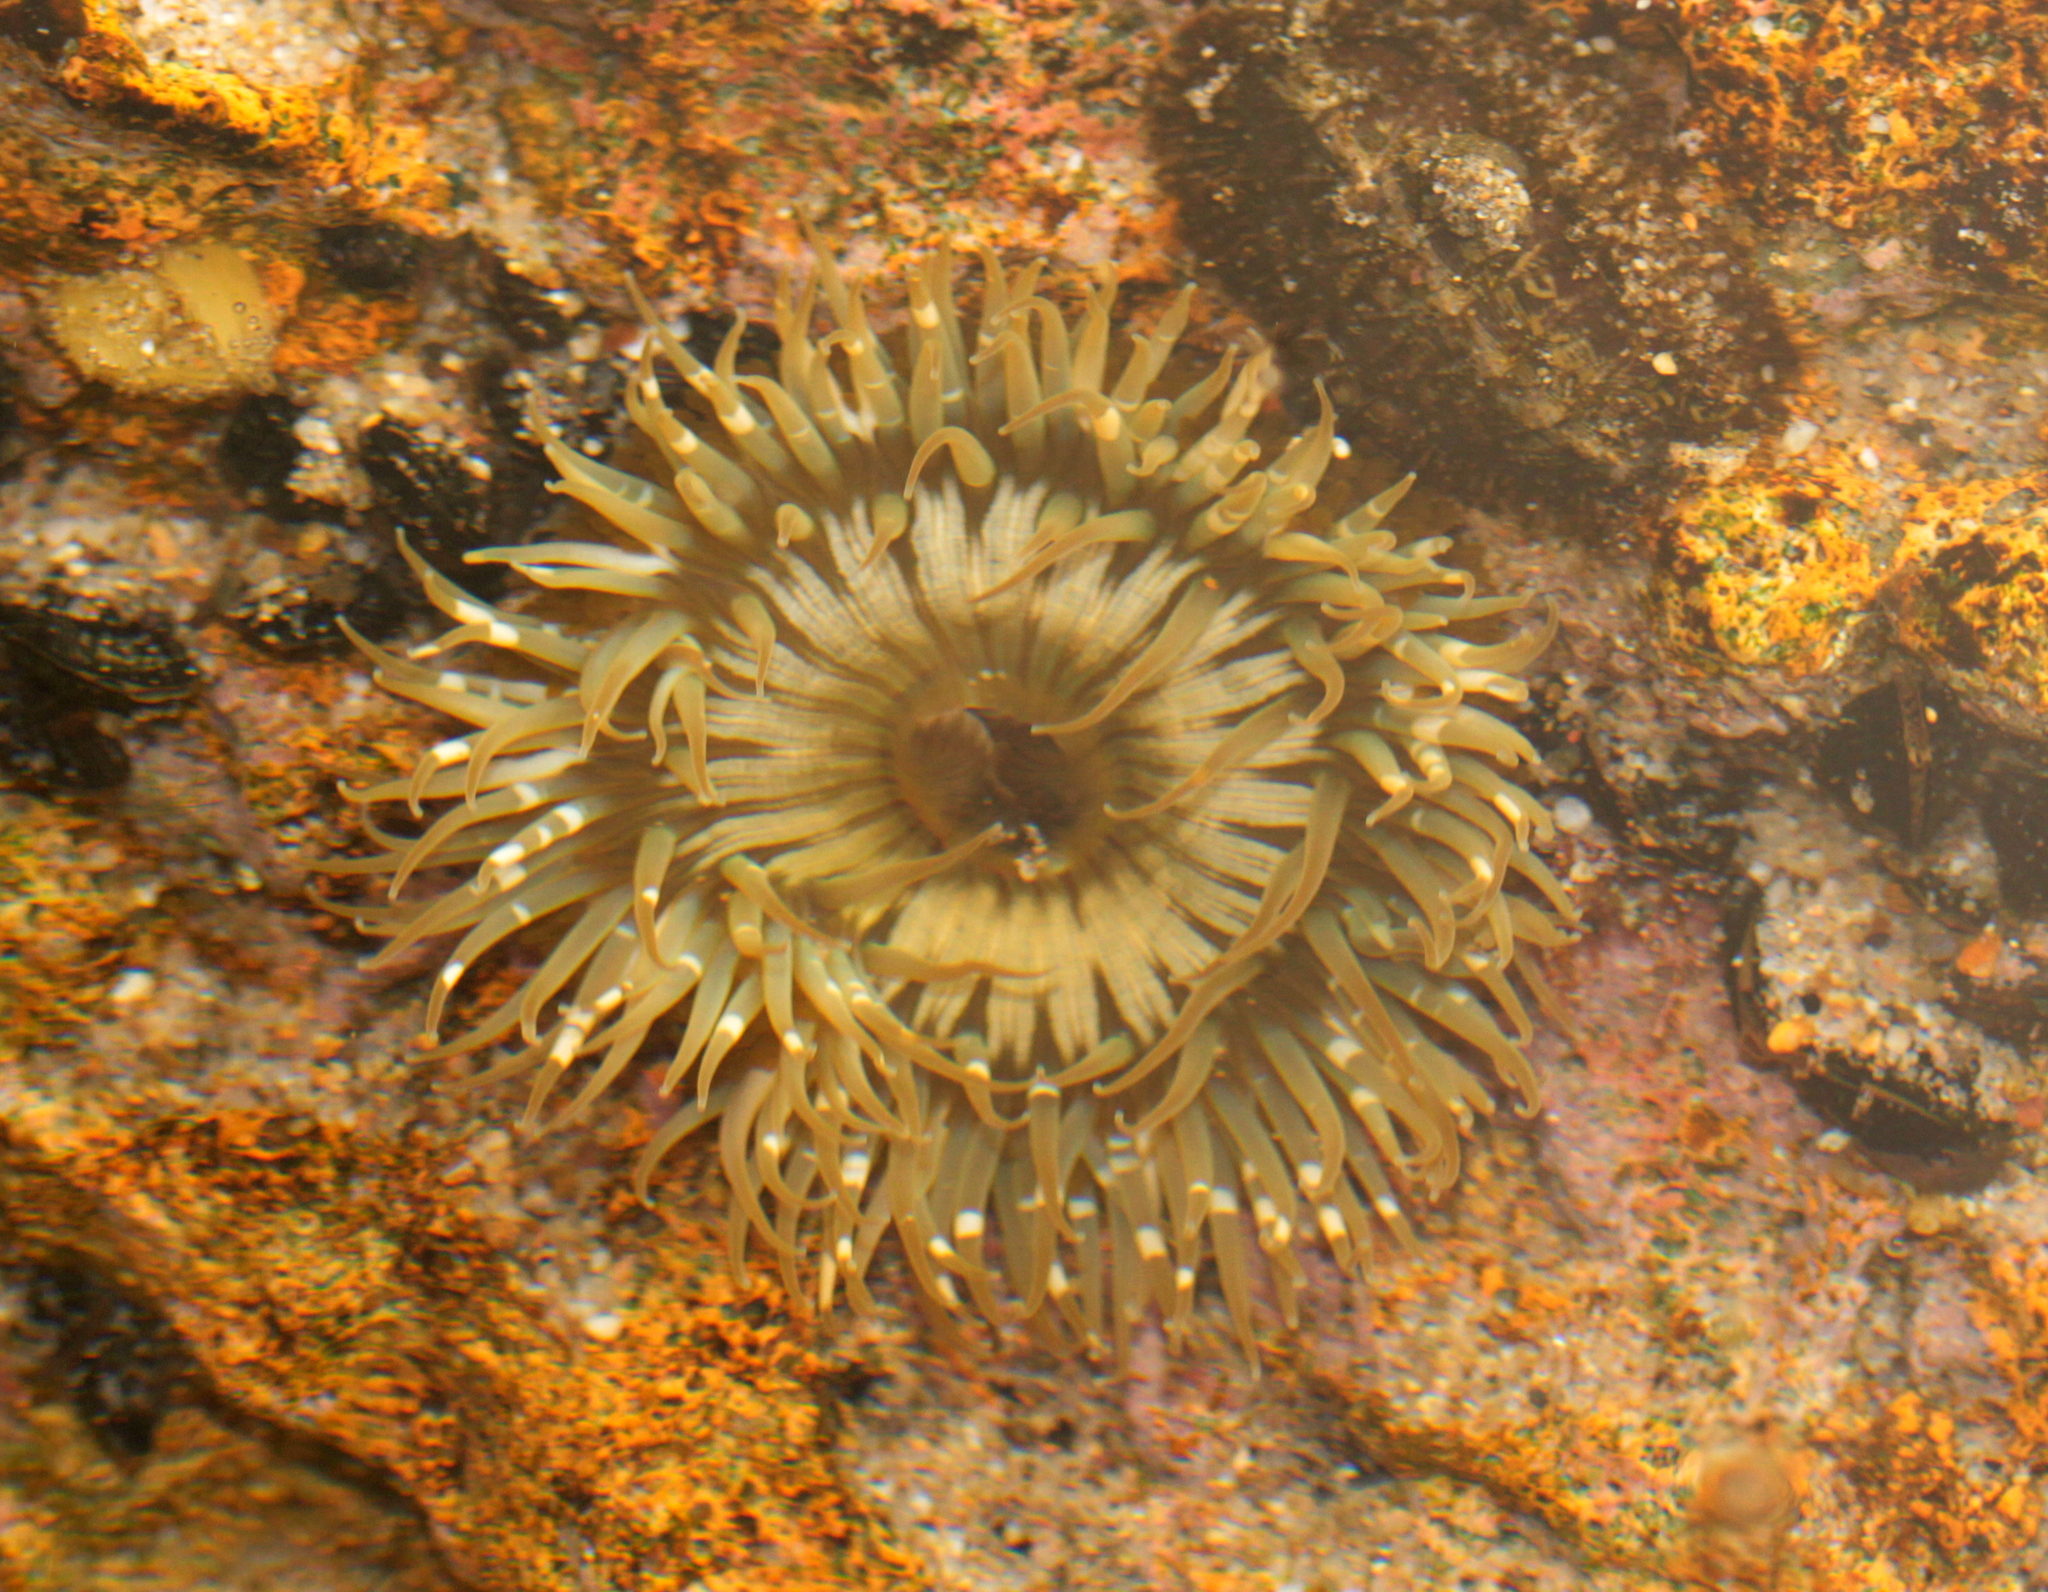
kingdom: Animalia
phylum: Cnidaria
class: Anthozoa
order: Actiniaria
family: Actiniidae
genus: Anthopleura
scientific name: Anthopleura sola
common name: Sun anemone
